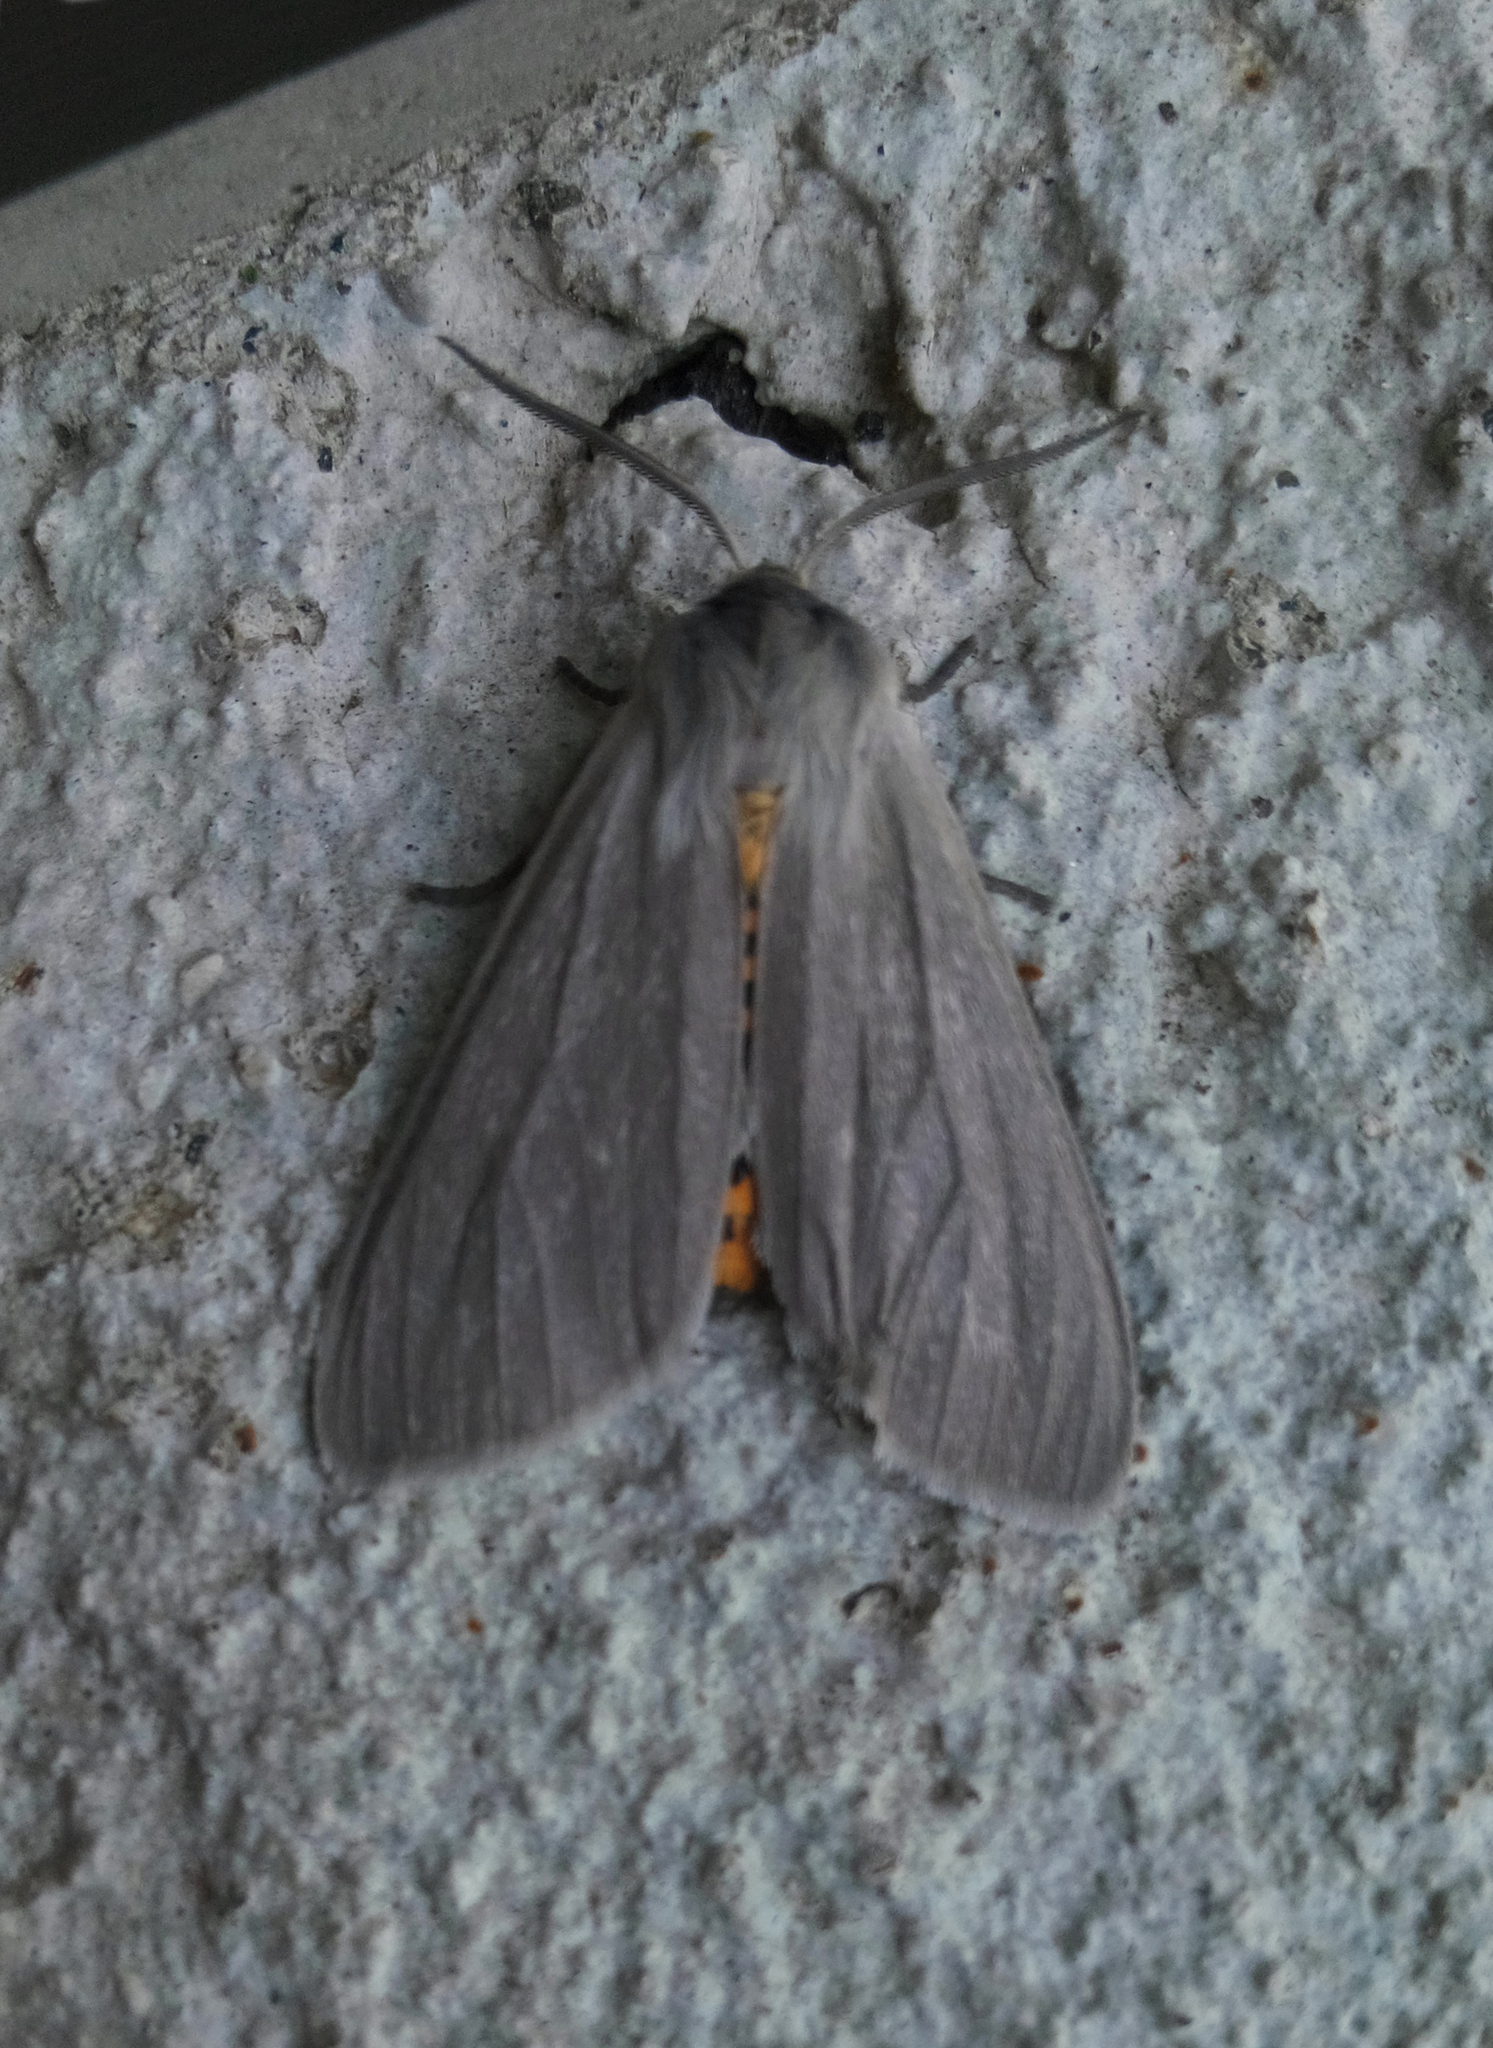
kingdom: Animalia
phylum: Arthropoda
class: Insecta
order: Lepidoptera
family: Erebidae
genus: Euchaetes
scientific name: Euchaetes egle
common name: Milkweed tussock moth
